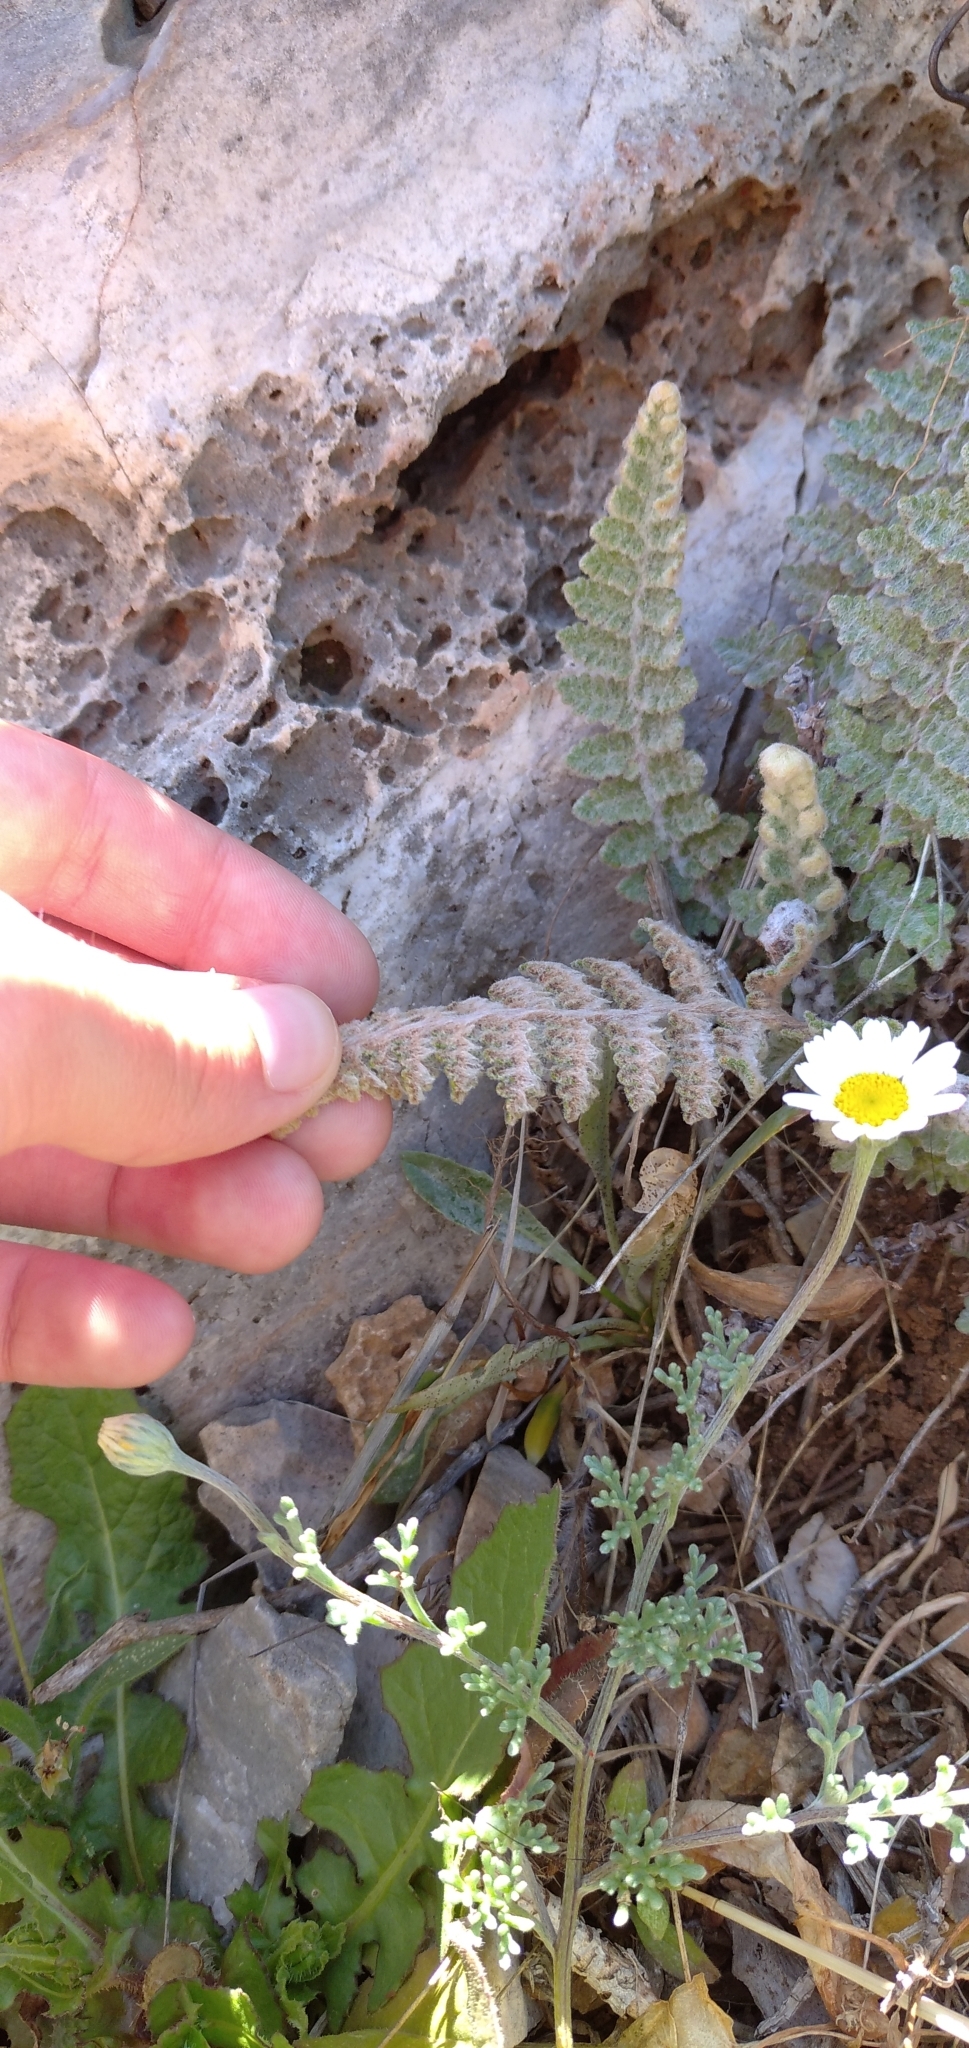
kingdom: Plantae
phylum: Tracheophyta
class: Polypodiopsida
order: Polypodiales
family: Pteridaceae
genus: Cosentinia
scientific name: Cosentinia vellea
